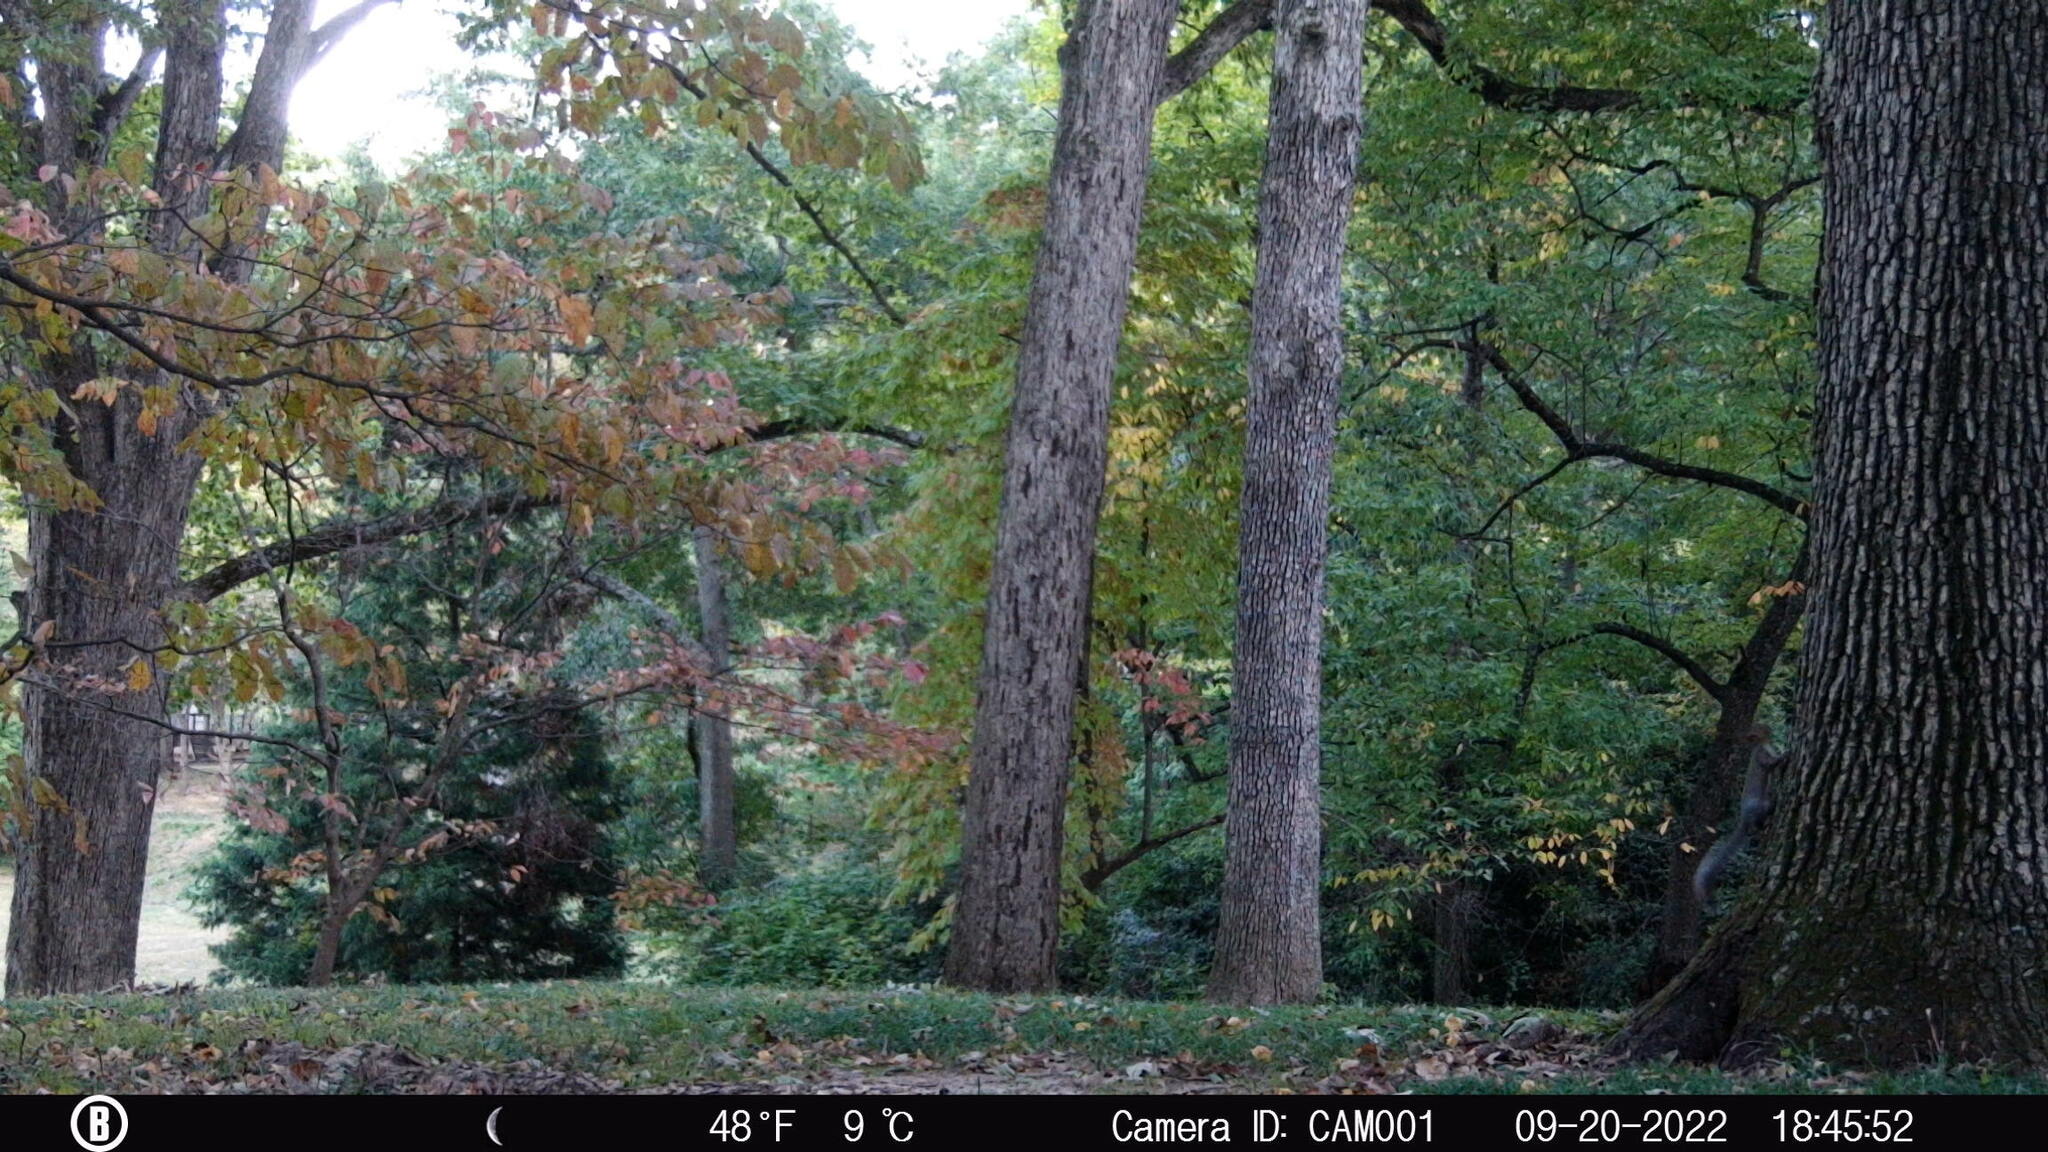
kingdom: Animalia
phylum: Chordata
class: Mammalia
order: Rodentia
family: Sciuridae
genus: Sciurus
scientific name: Sciurus carolinensis
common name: Eastern gray squirrel
